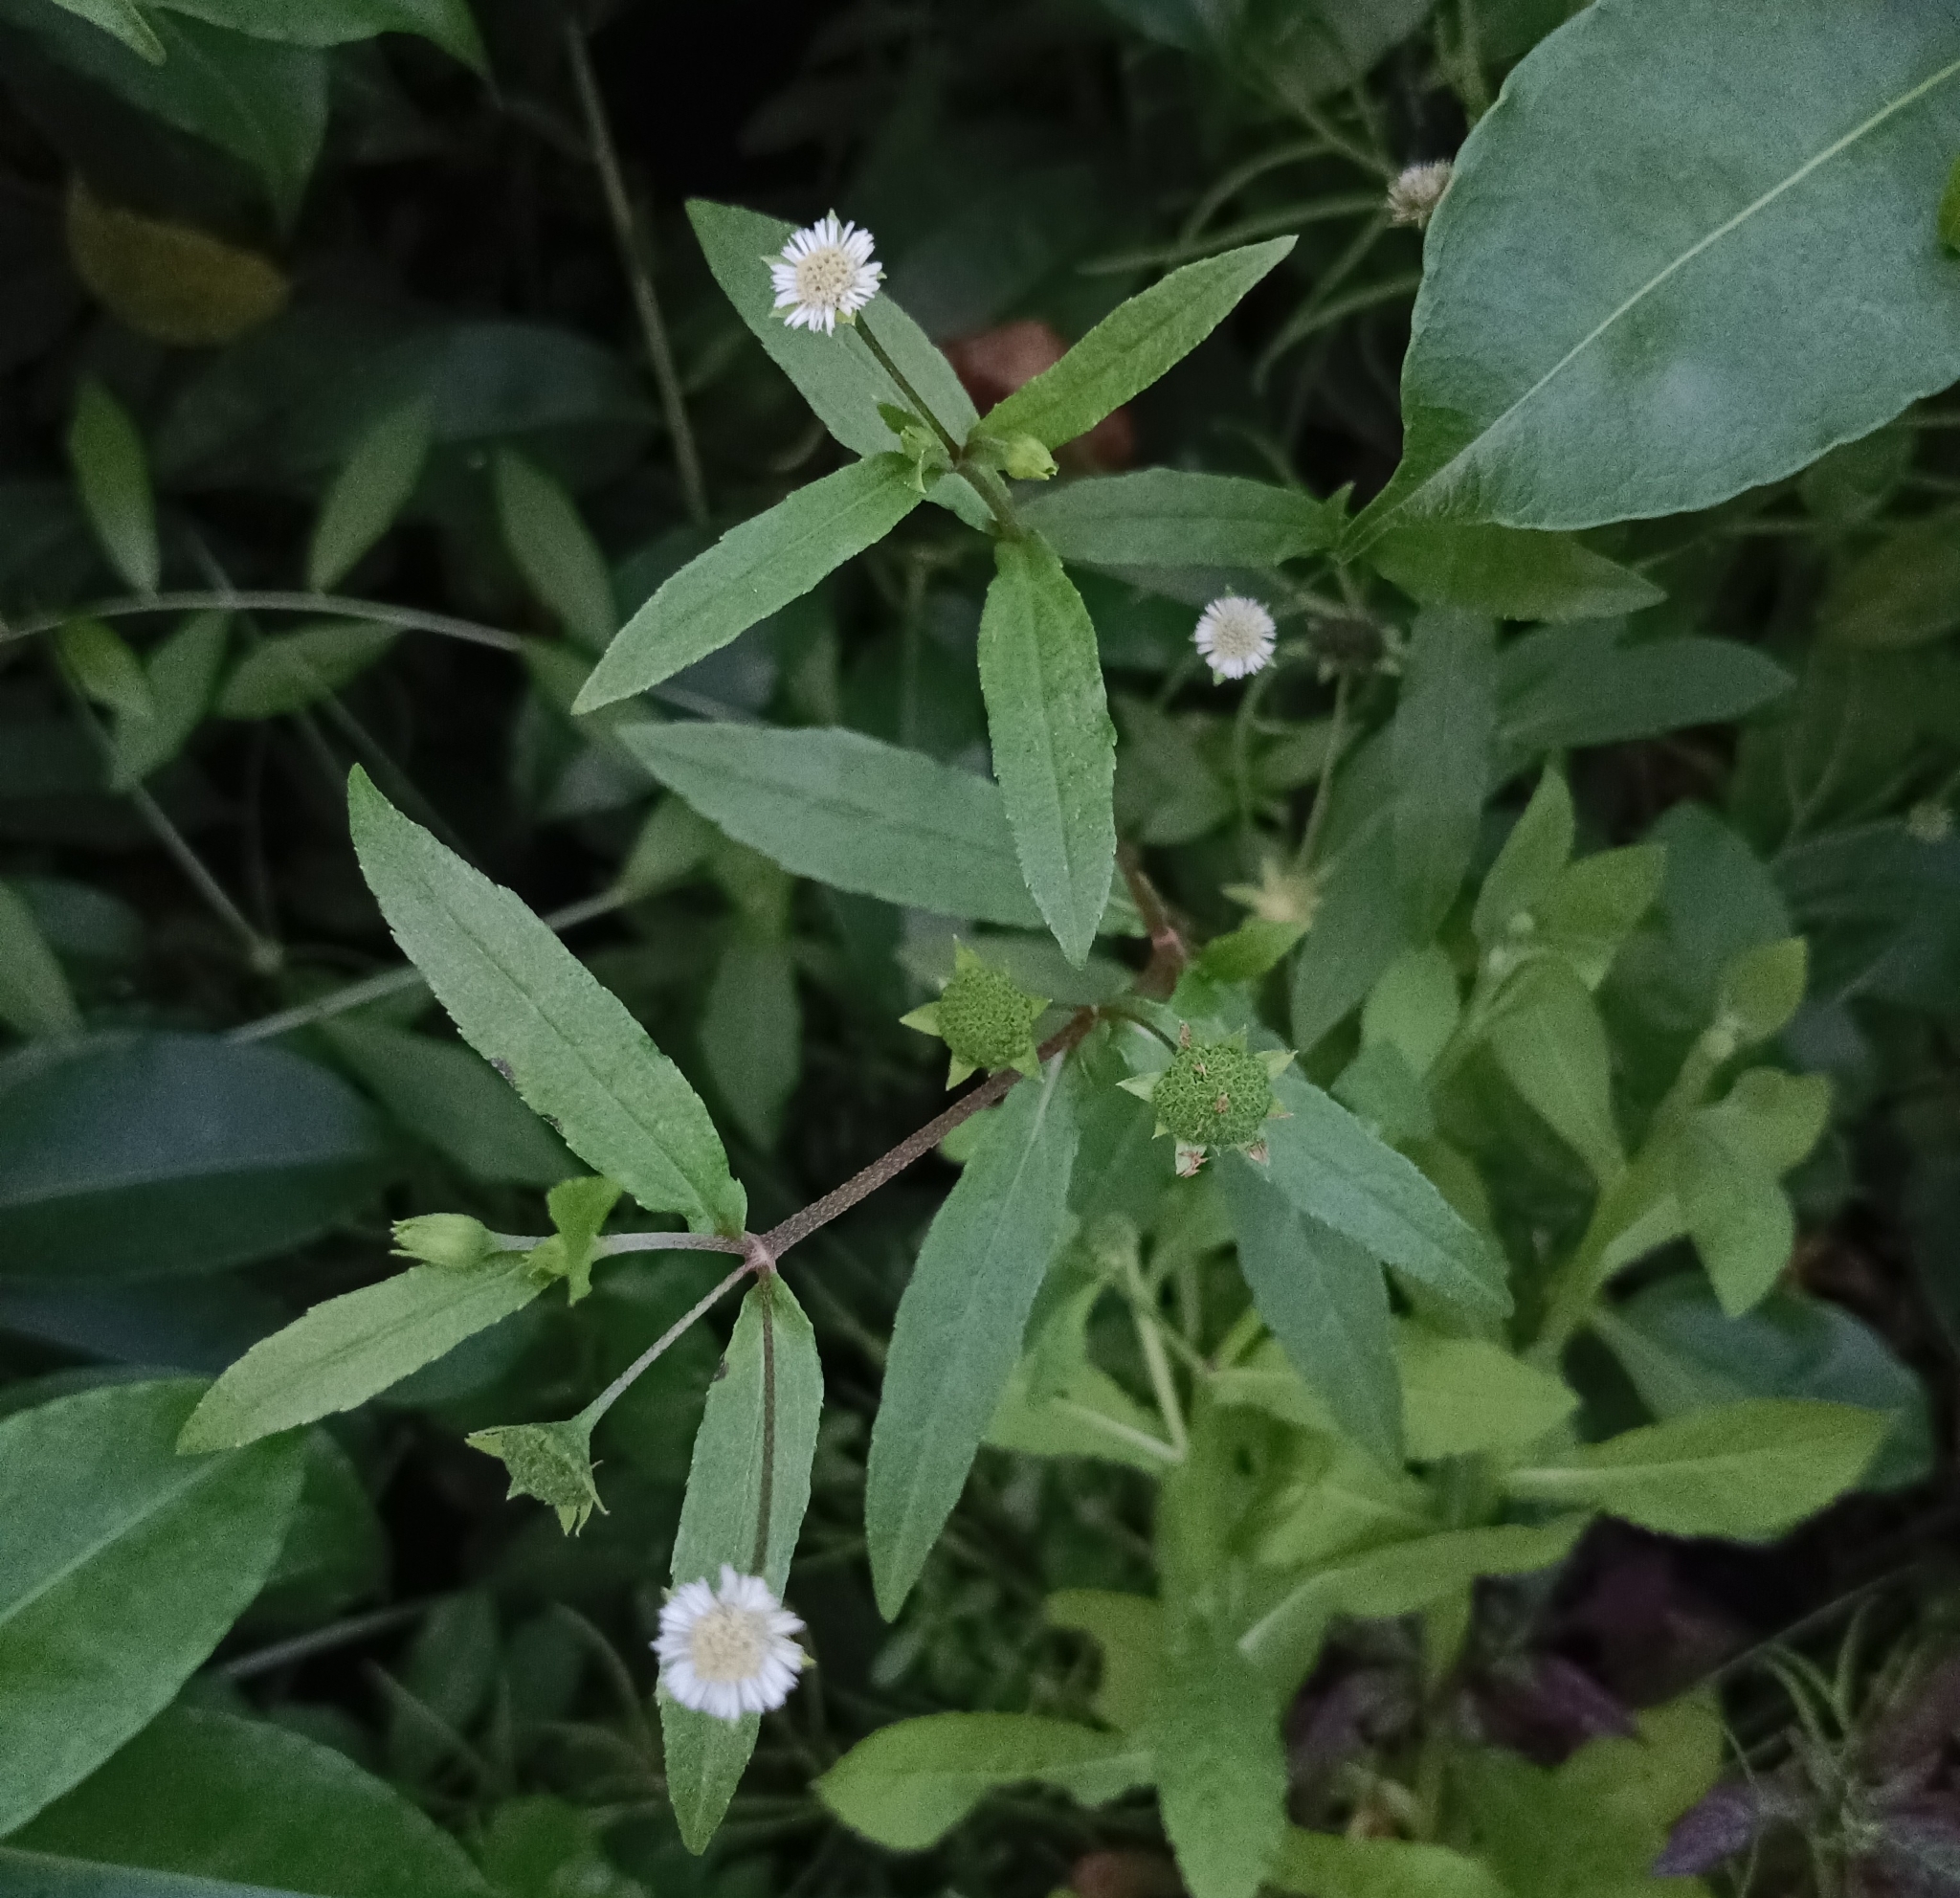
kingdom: Plantae
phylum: Tracheophyta
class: Magnoliopsida
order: Asterales
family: Asteraceae
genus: Eclipta
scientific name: Eclipta prostrata
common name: False daisy
